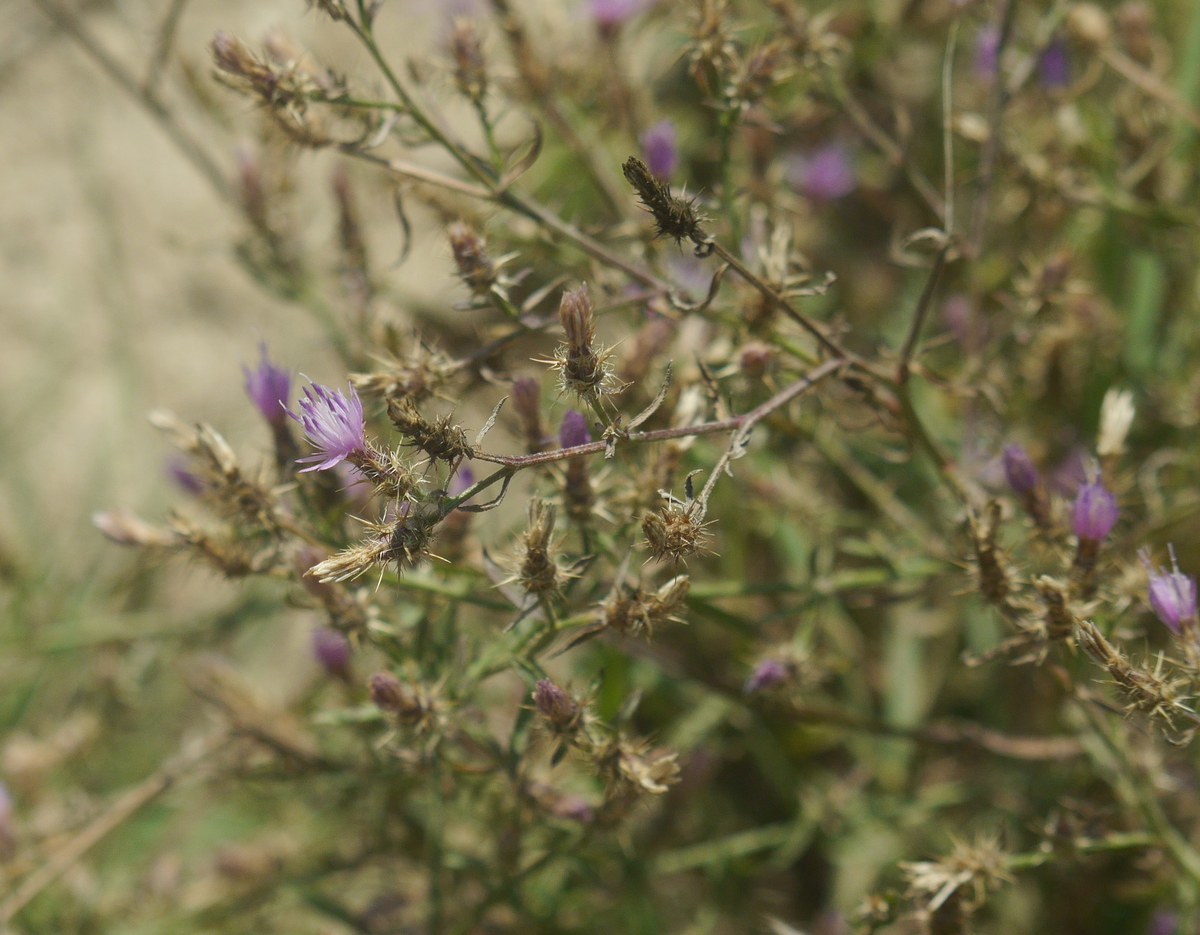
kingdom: Plantae
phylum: Tracheophyta
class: Magnoliopsida
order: Asterales
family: Asteraceae
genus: Centaurea
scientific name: Centaurea diffusa
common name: Diffuse knapweed
